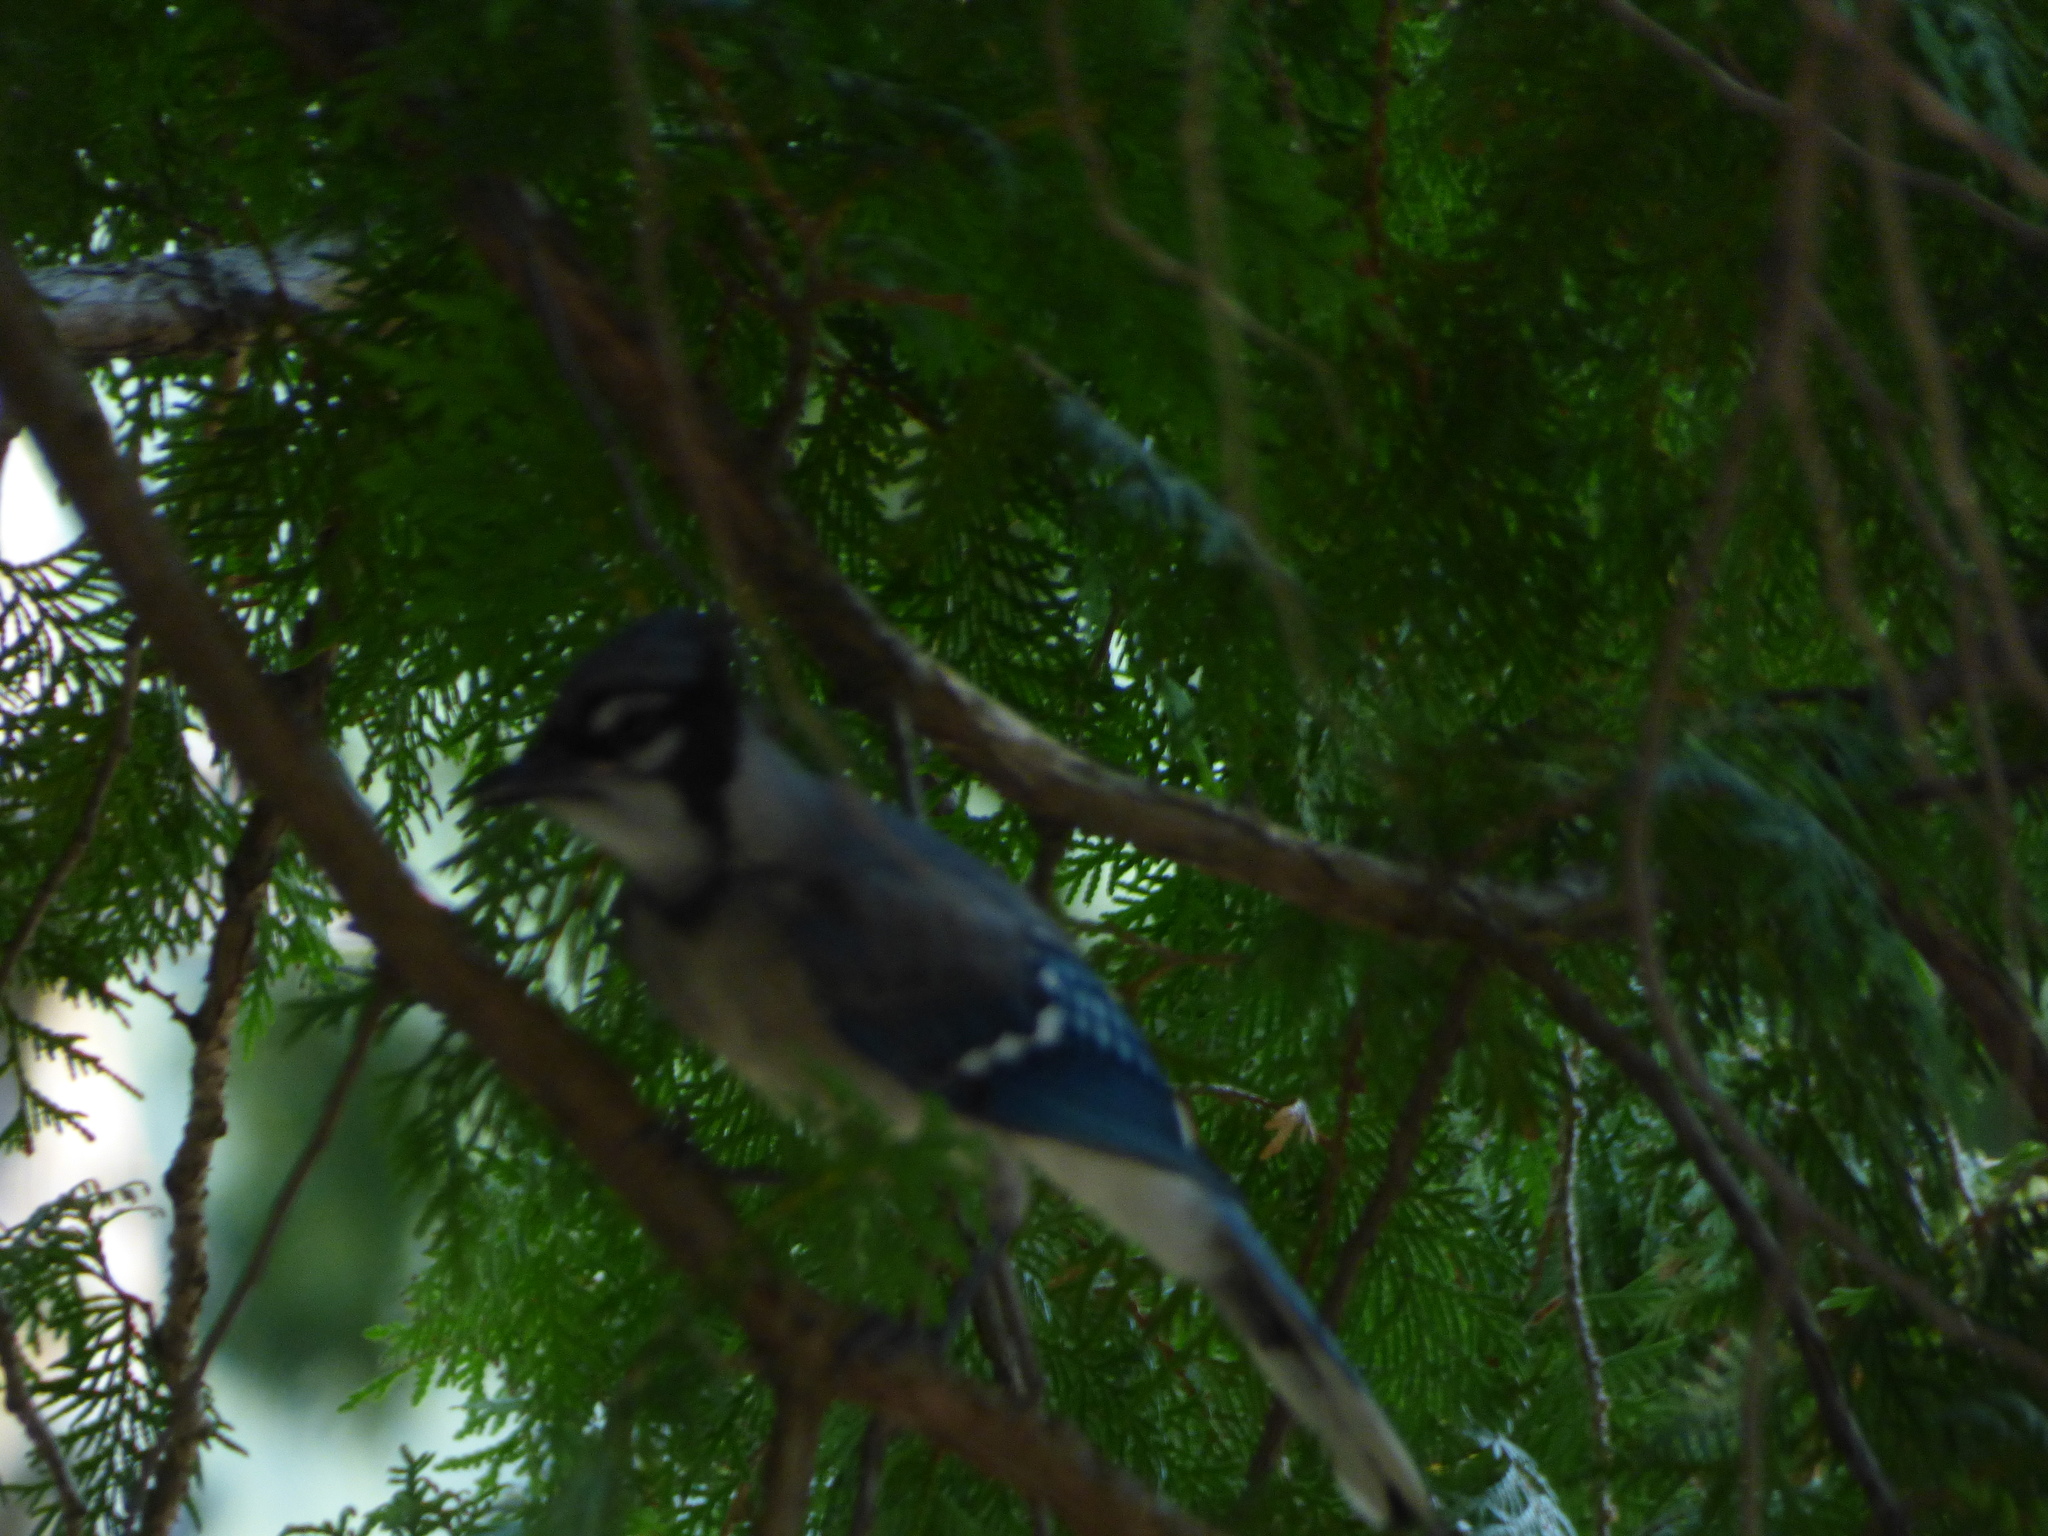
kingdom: Animalia
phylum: Chordata
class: Aves
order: Passeriformes
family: Corvidae
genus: Cyanocitta
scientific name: Cyanocitta cristata
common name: Blue jay
